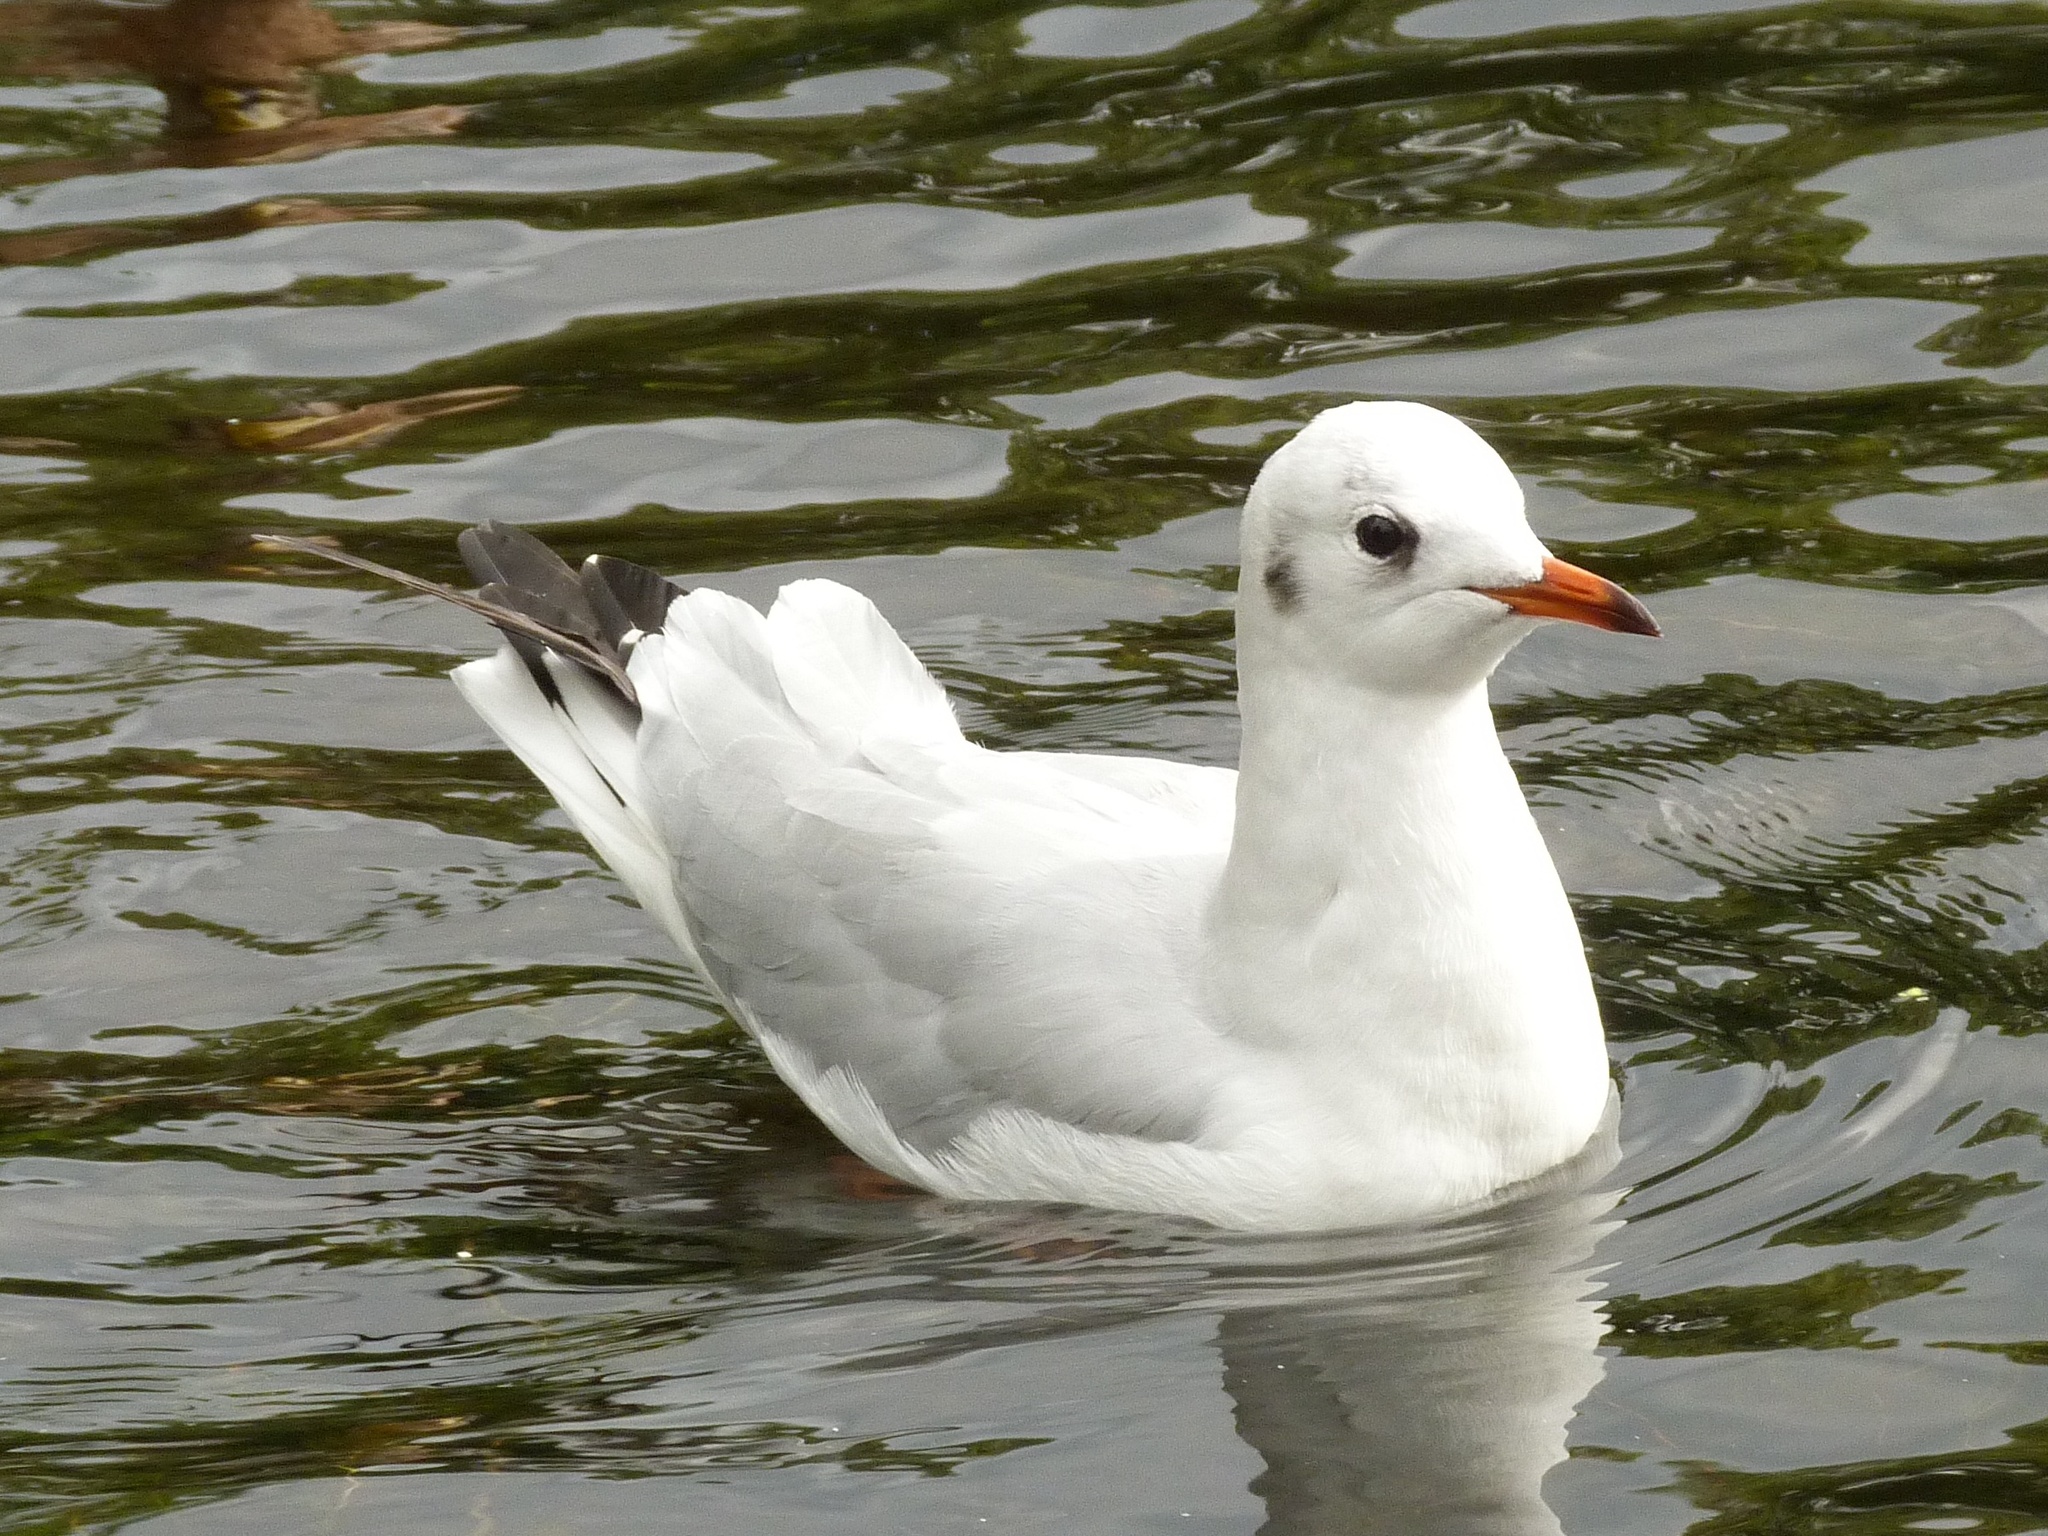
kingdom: Animalia
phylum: Chordata
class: Aves
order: Charadriiformes
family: Laridae
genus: Chroicocephalus
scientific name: Chroicocephalus ridibundus
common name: Black-headed gull
